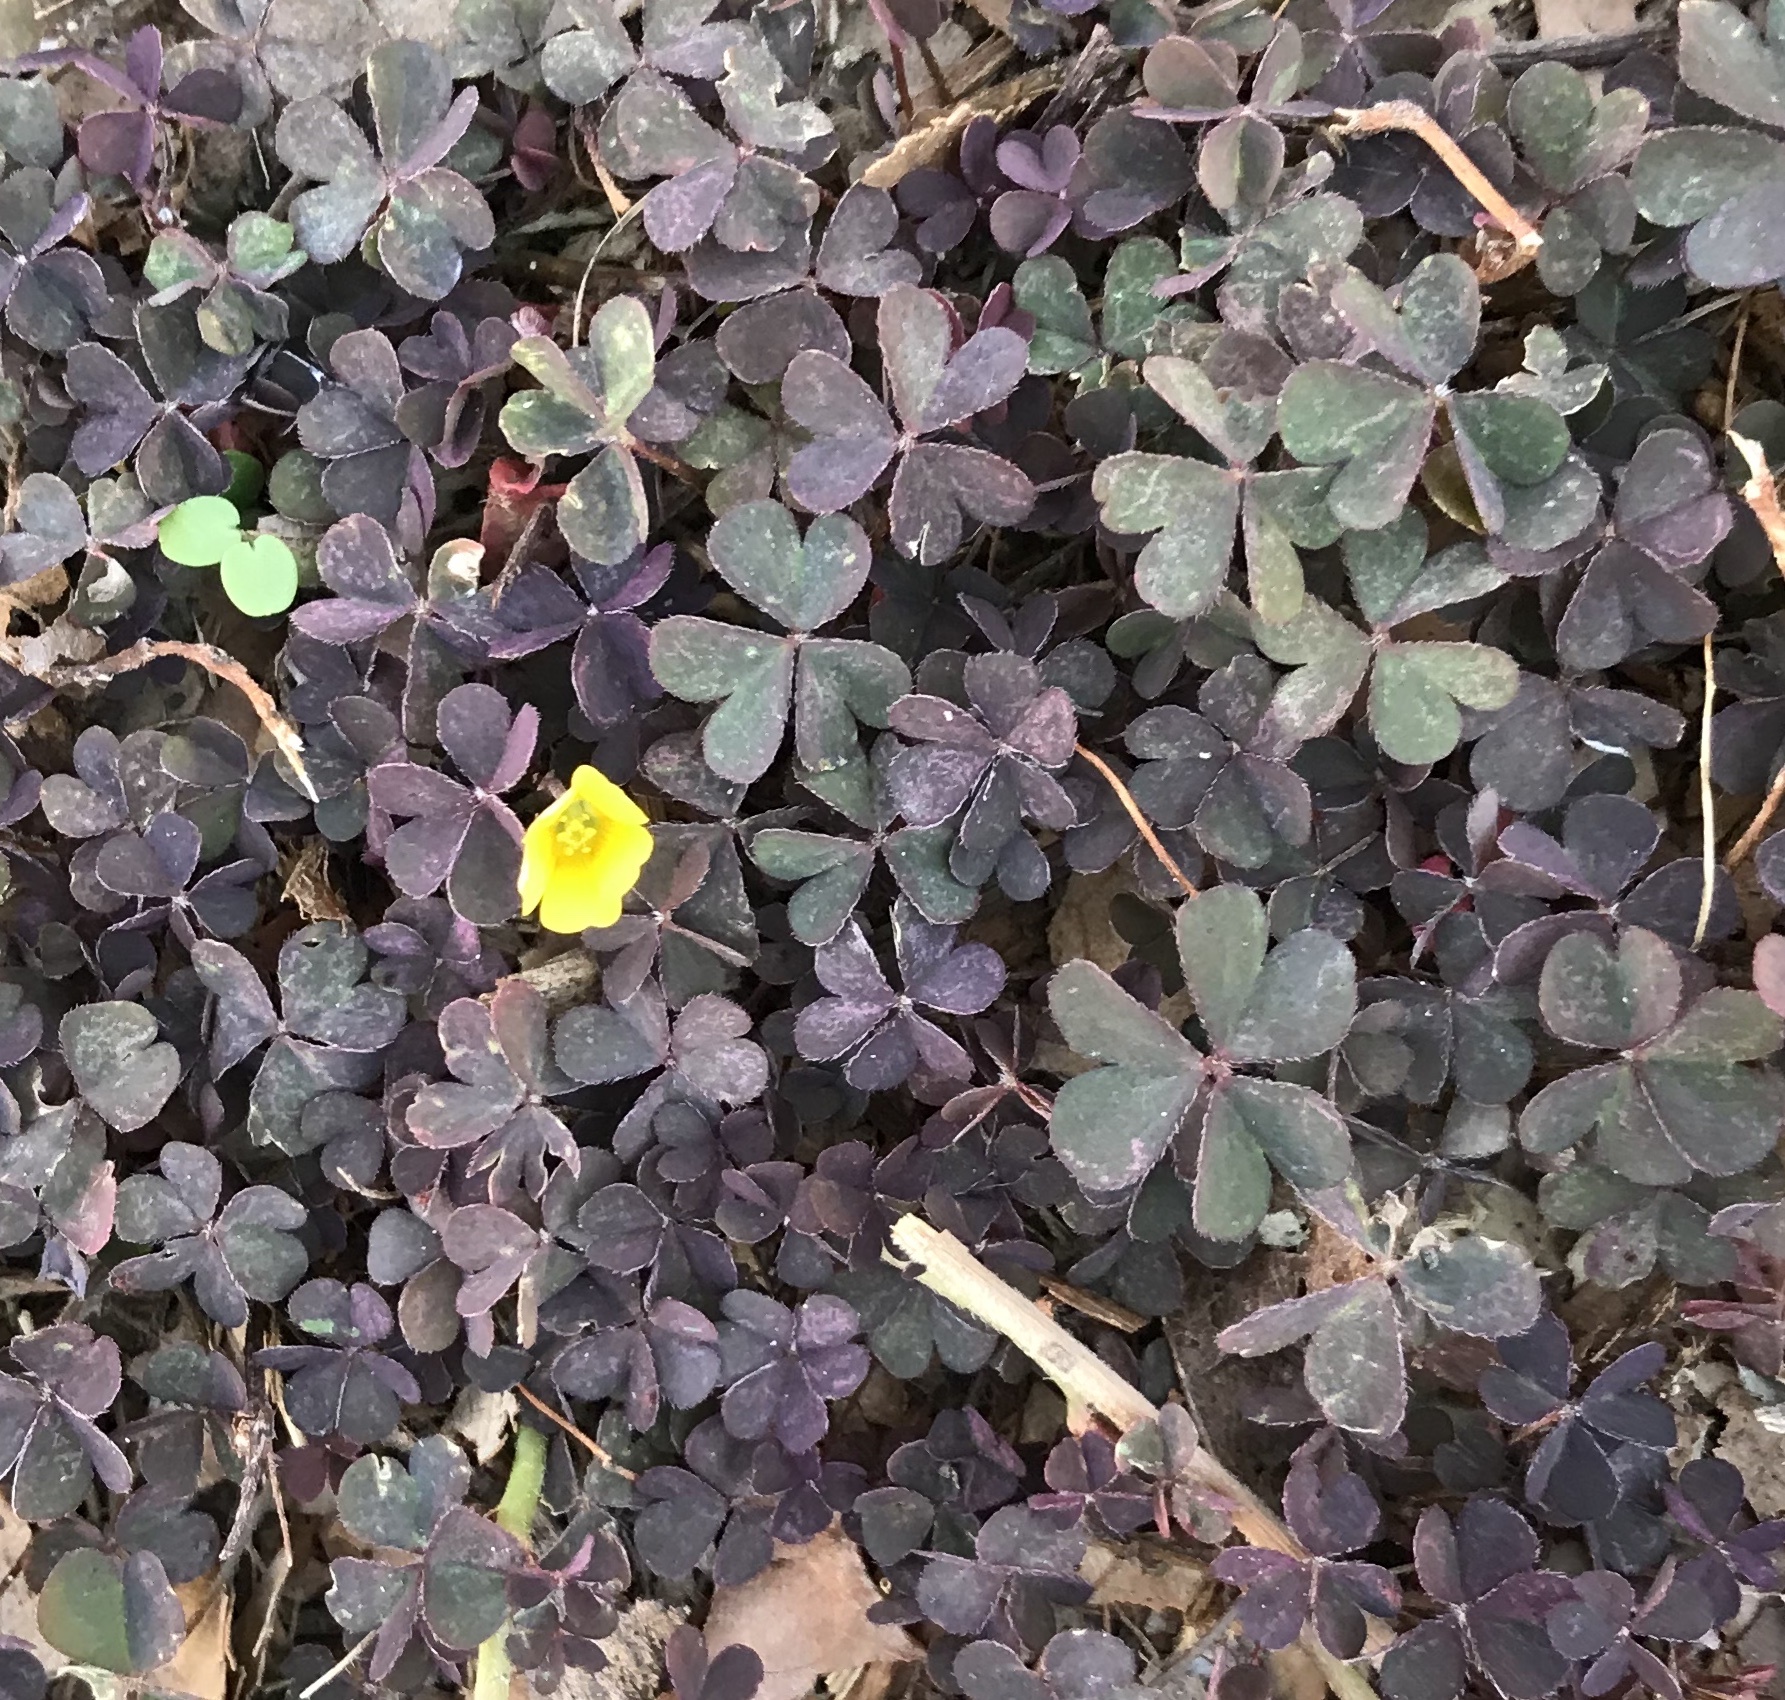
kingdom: Plantae
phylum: Tracheophyta
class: Magnoliopsida
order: Oxalidales
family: Oxalidaceae
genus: Oxalis
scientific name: Oxalis corniculata
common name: Procumbent yellow-sorrel
